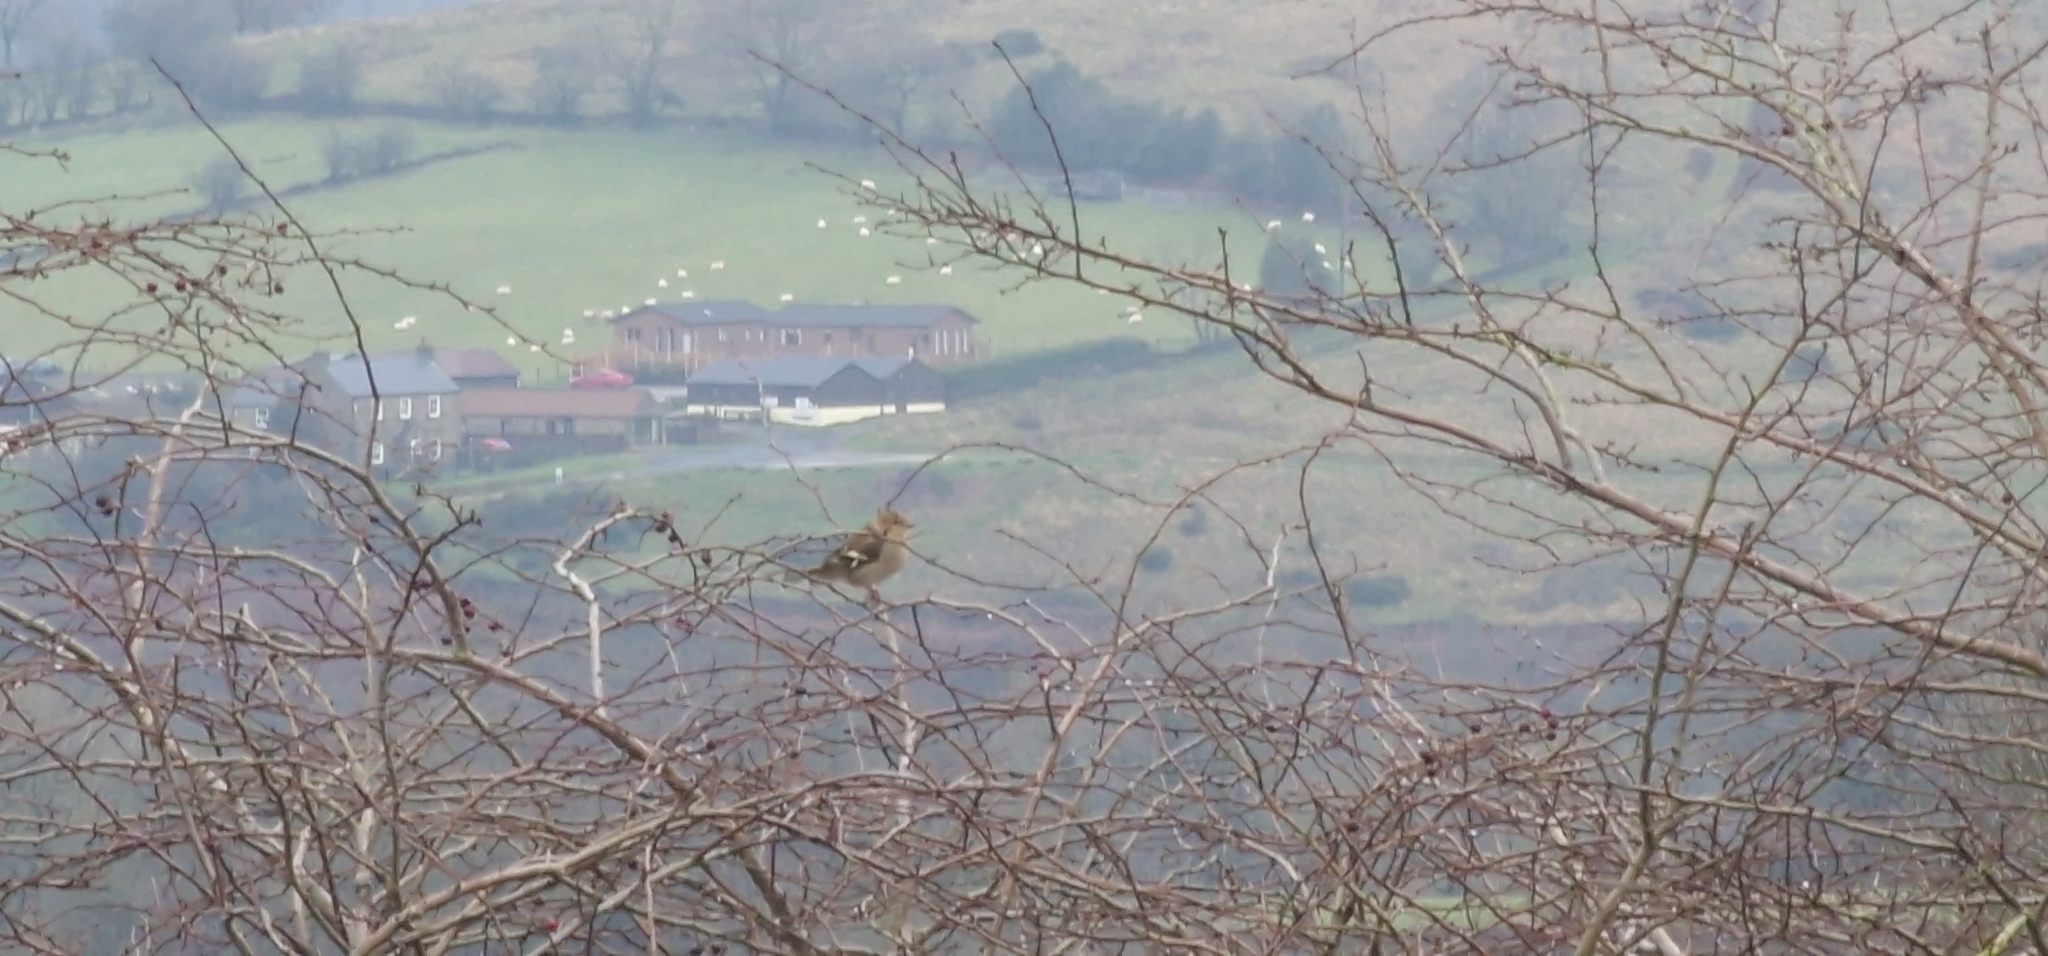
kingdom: Animalia
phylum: Chordata
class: Aves
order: Passeriformes
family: Fringillidae
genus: Fringilla
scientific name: Fringilla coelebs
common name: Common chaffinch
